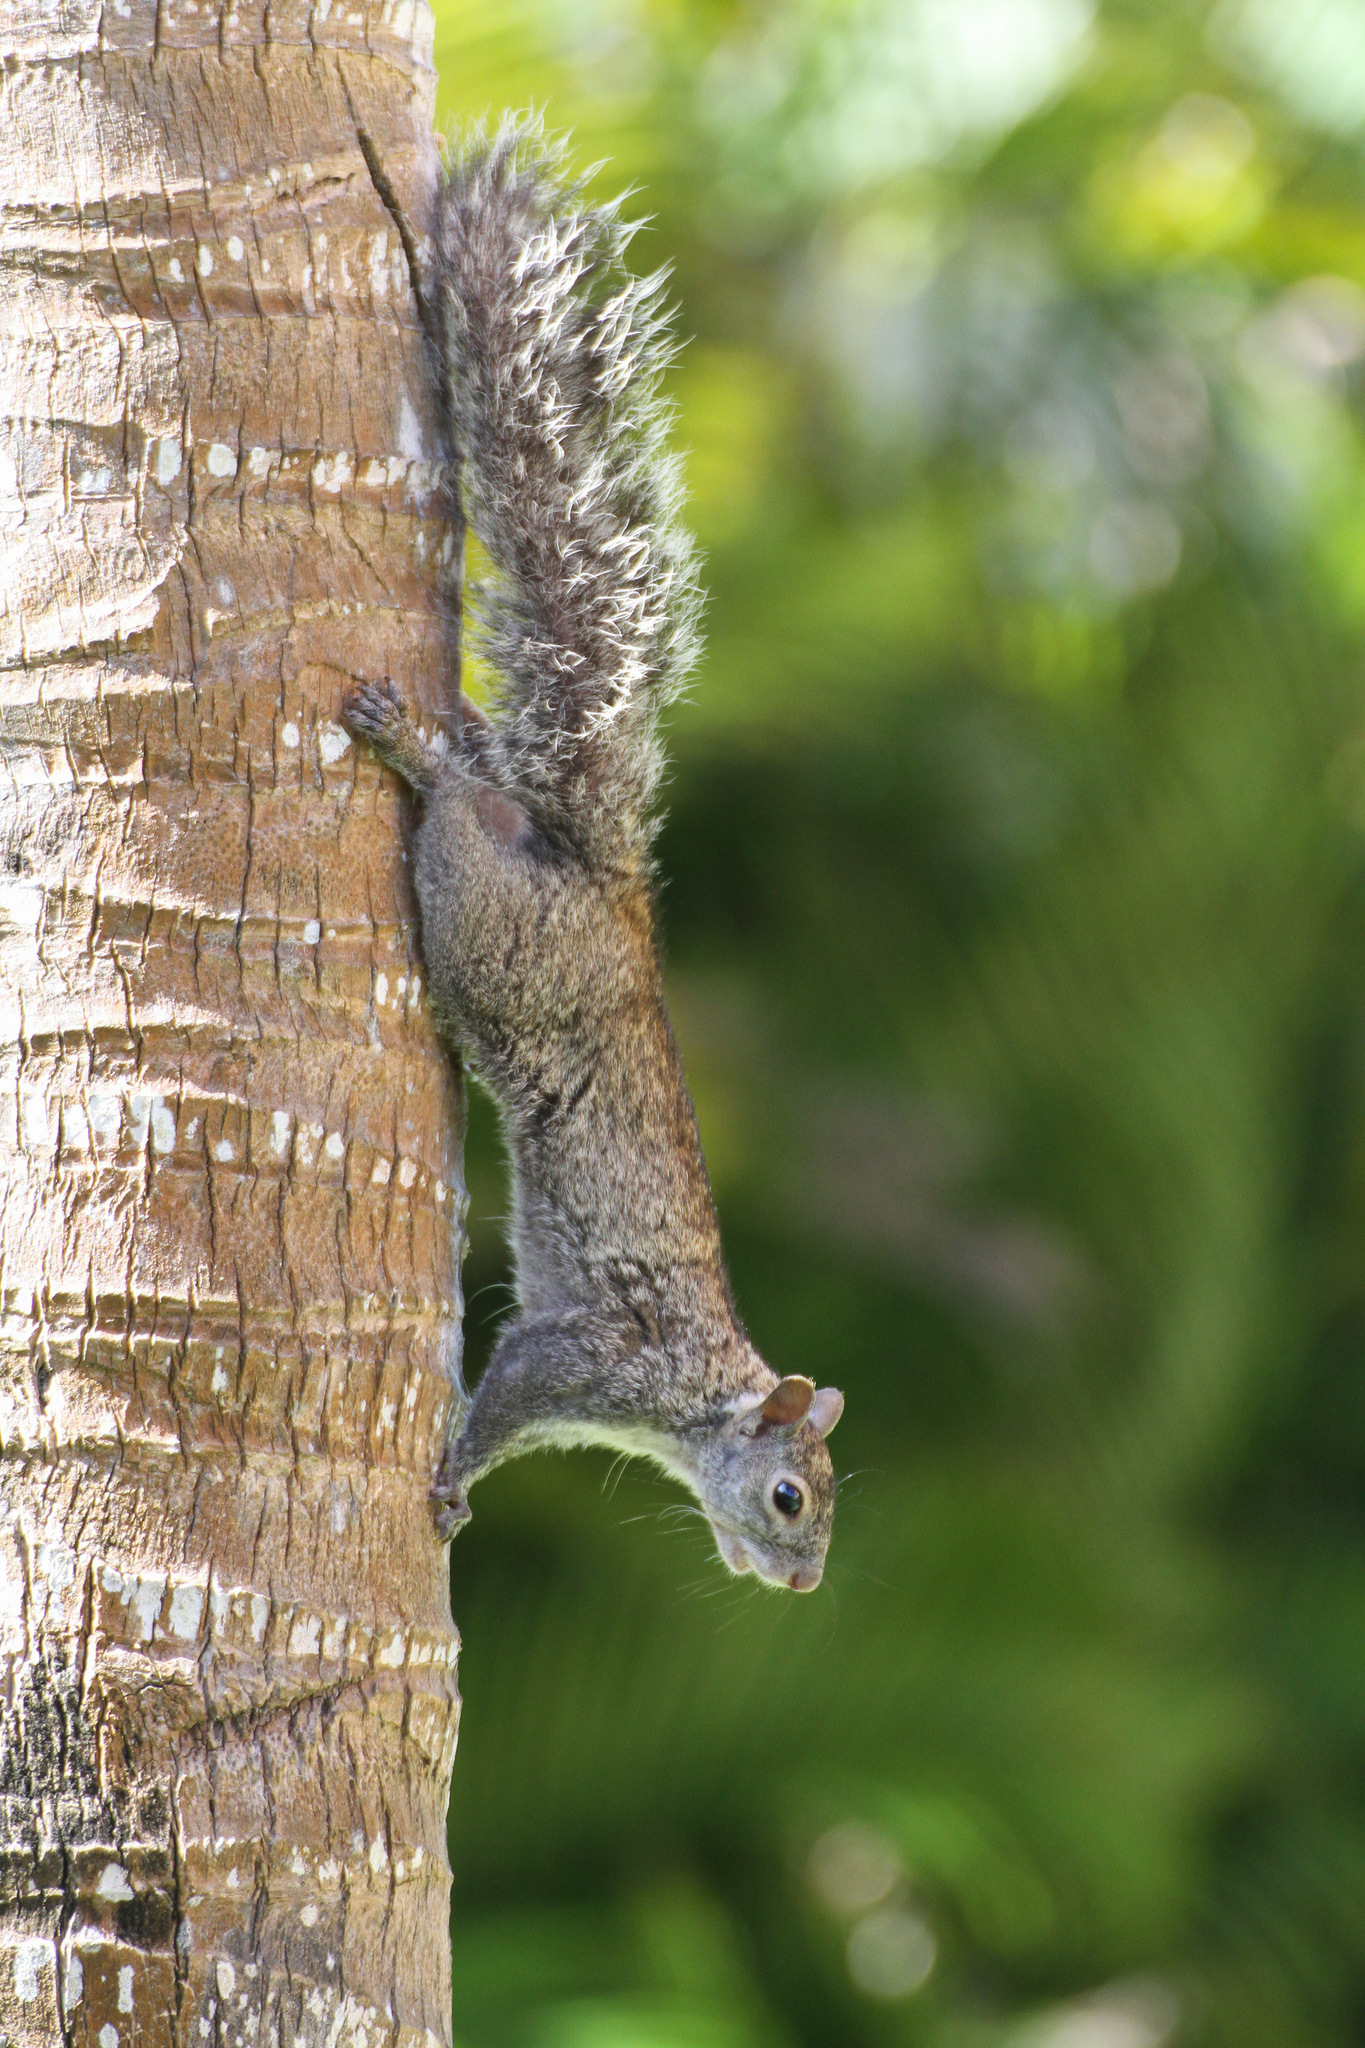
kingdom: Animalia
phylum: Chordata
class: Mammalia
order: Rodentia
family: Sciuridae
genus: Sciurus
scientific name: Sciurus yucatanensis
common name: Yucatan squirrel
